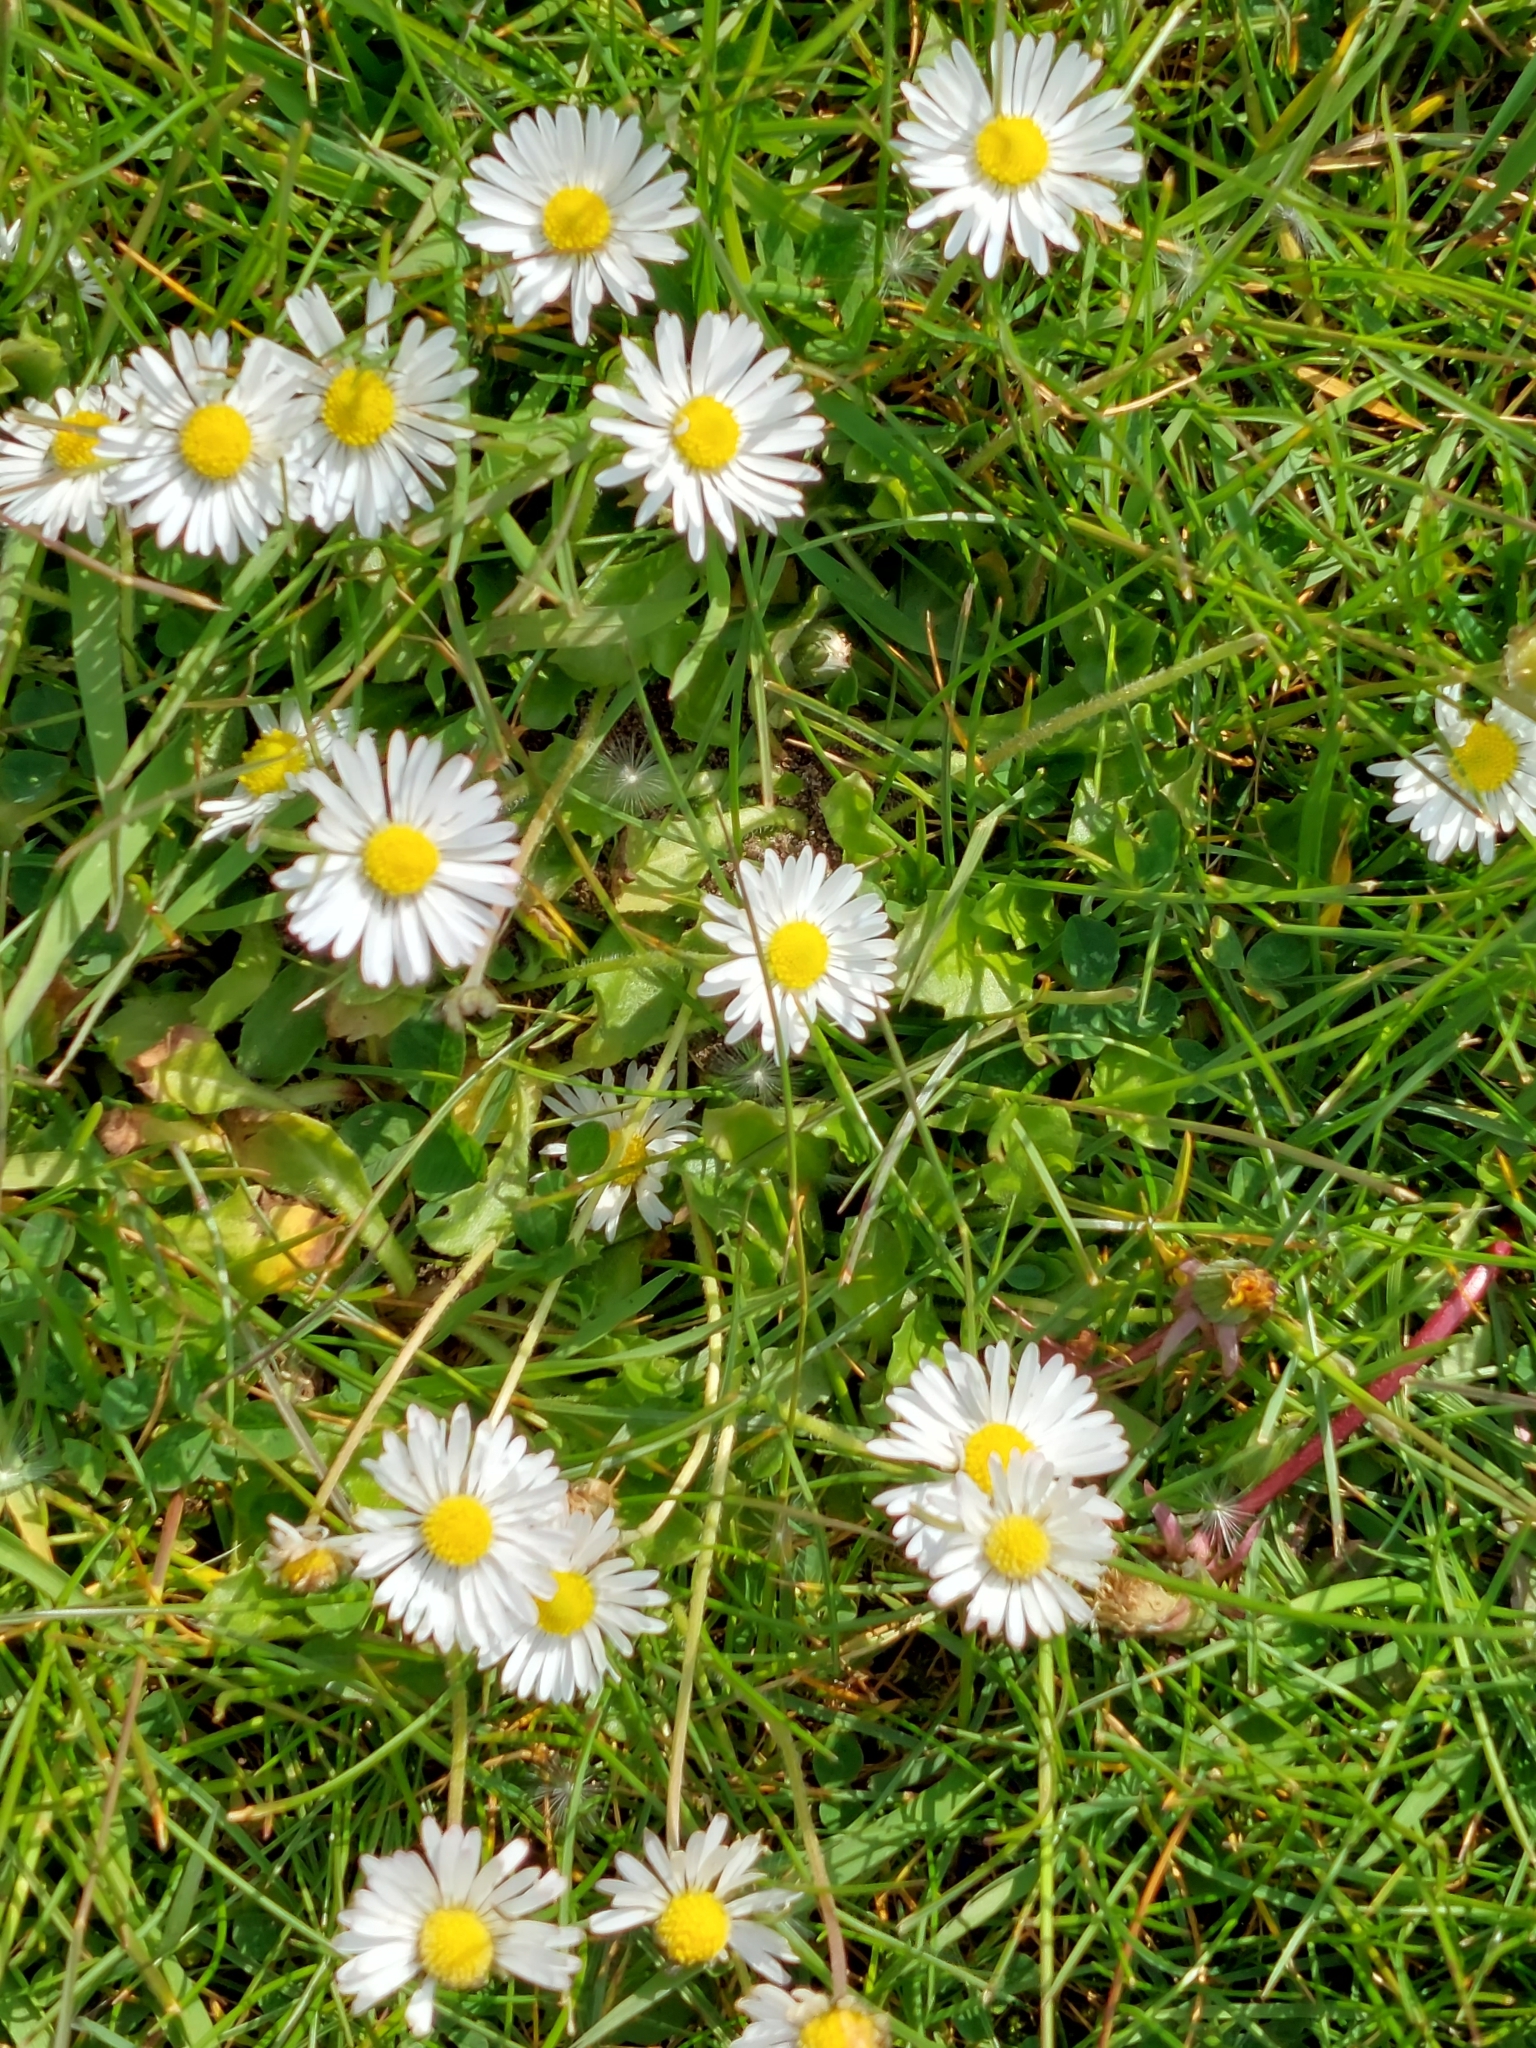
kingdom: Plantae
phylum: Tracheophyta
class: Magnoliopsida
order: Asterales
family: Asteraceae
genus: Bellis
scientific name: Bellis perennis
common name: Lawndaisy
